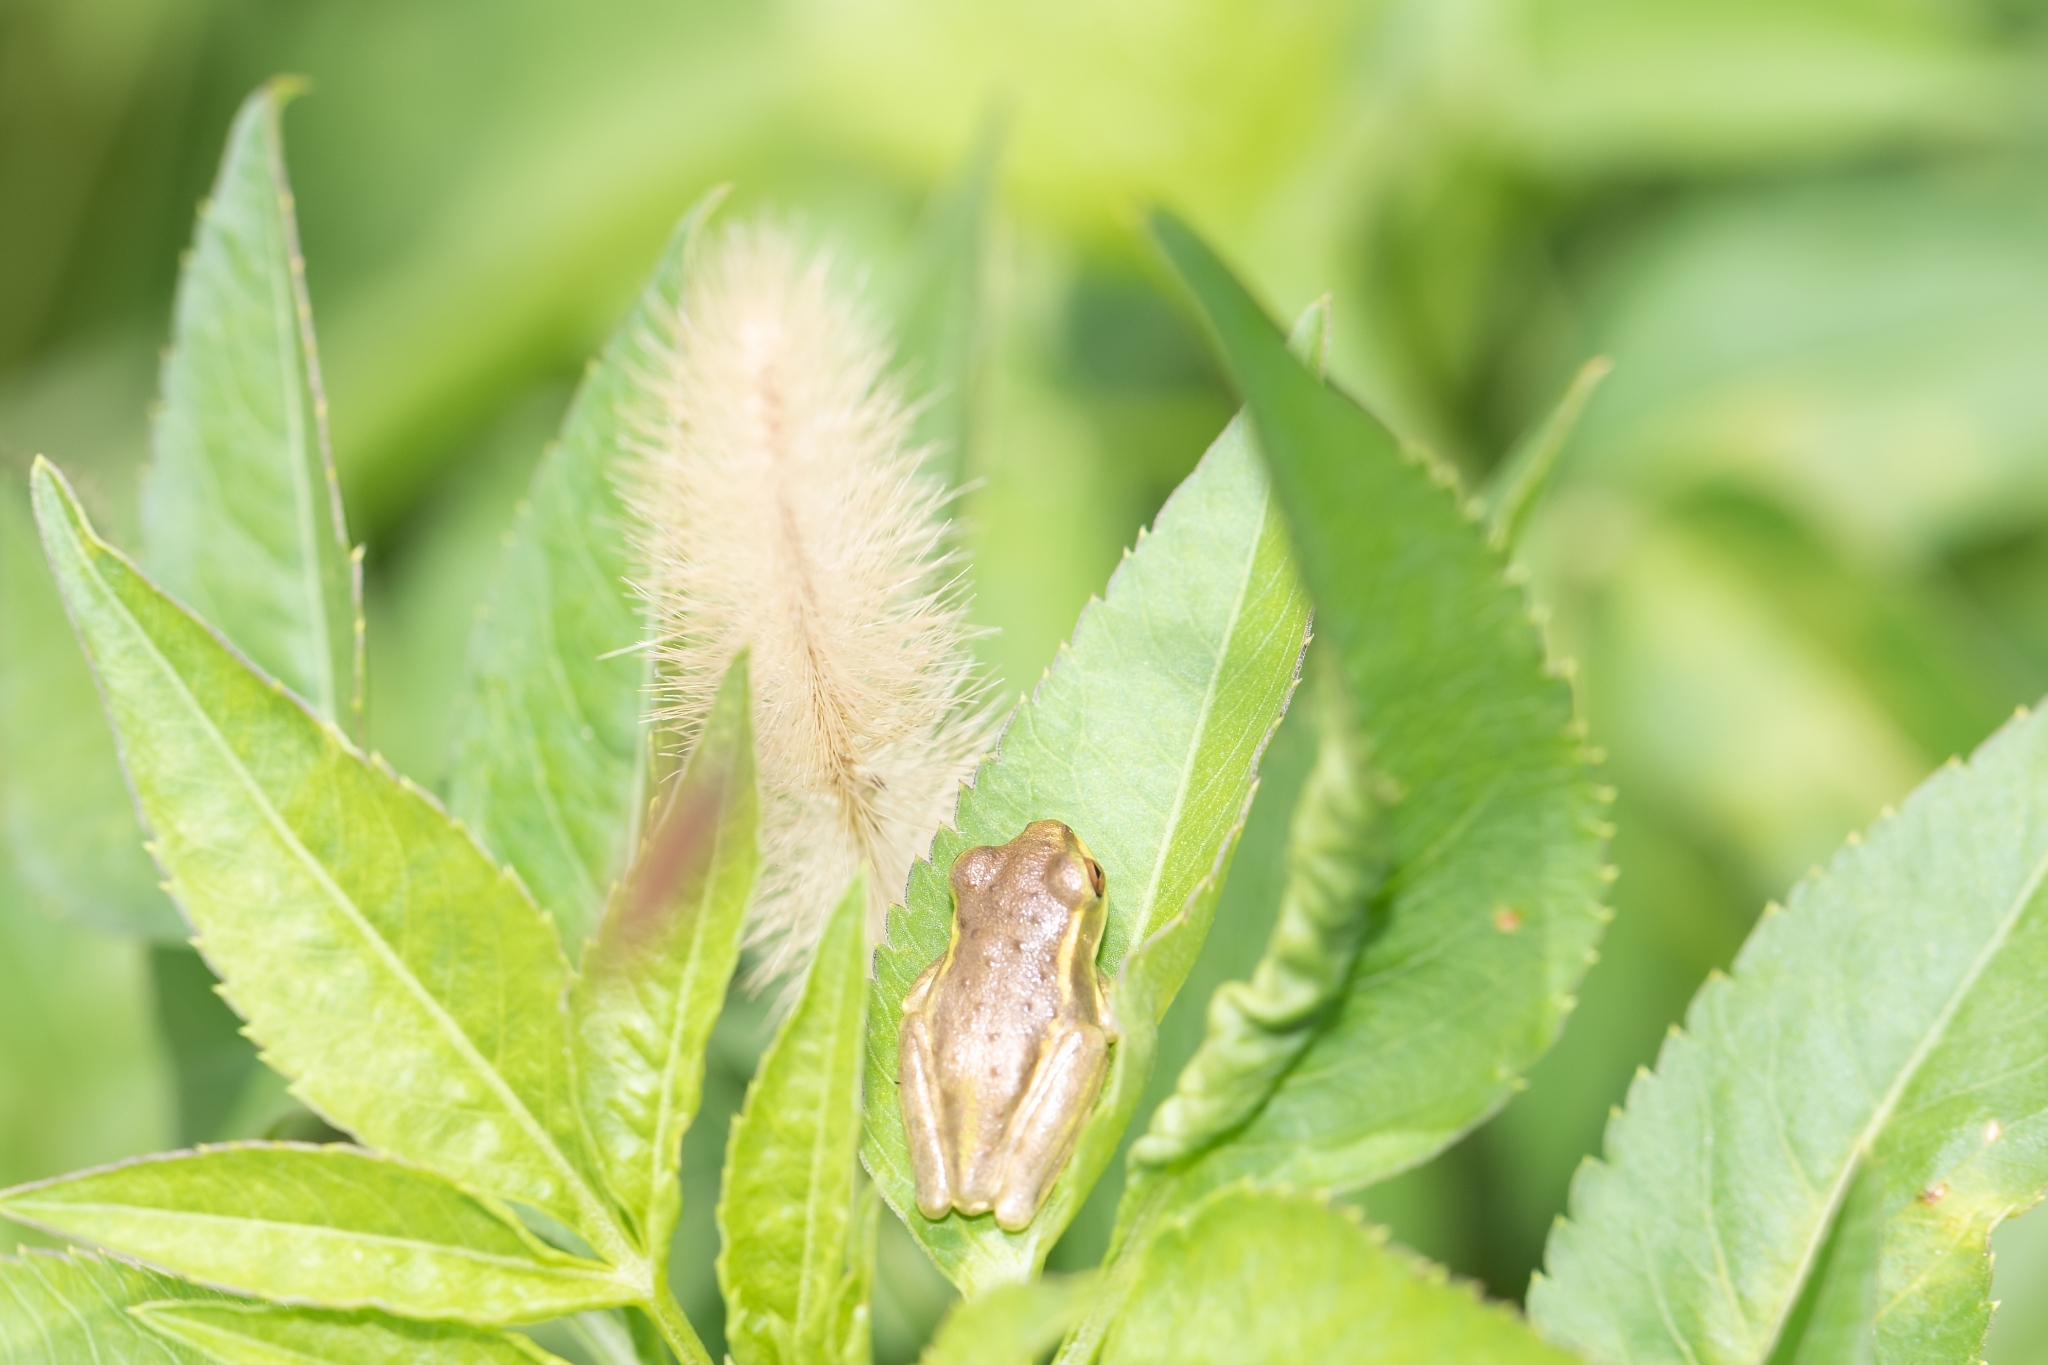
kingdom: Animalia
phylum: Chordata
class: Amphibia
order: Anura
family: Hylidae
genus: Osteopilus
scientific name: Osteopilus septentrionalis
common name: Cuban treefrog
